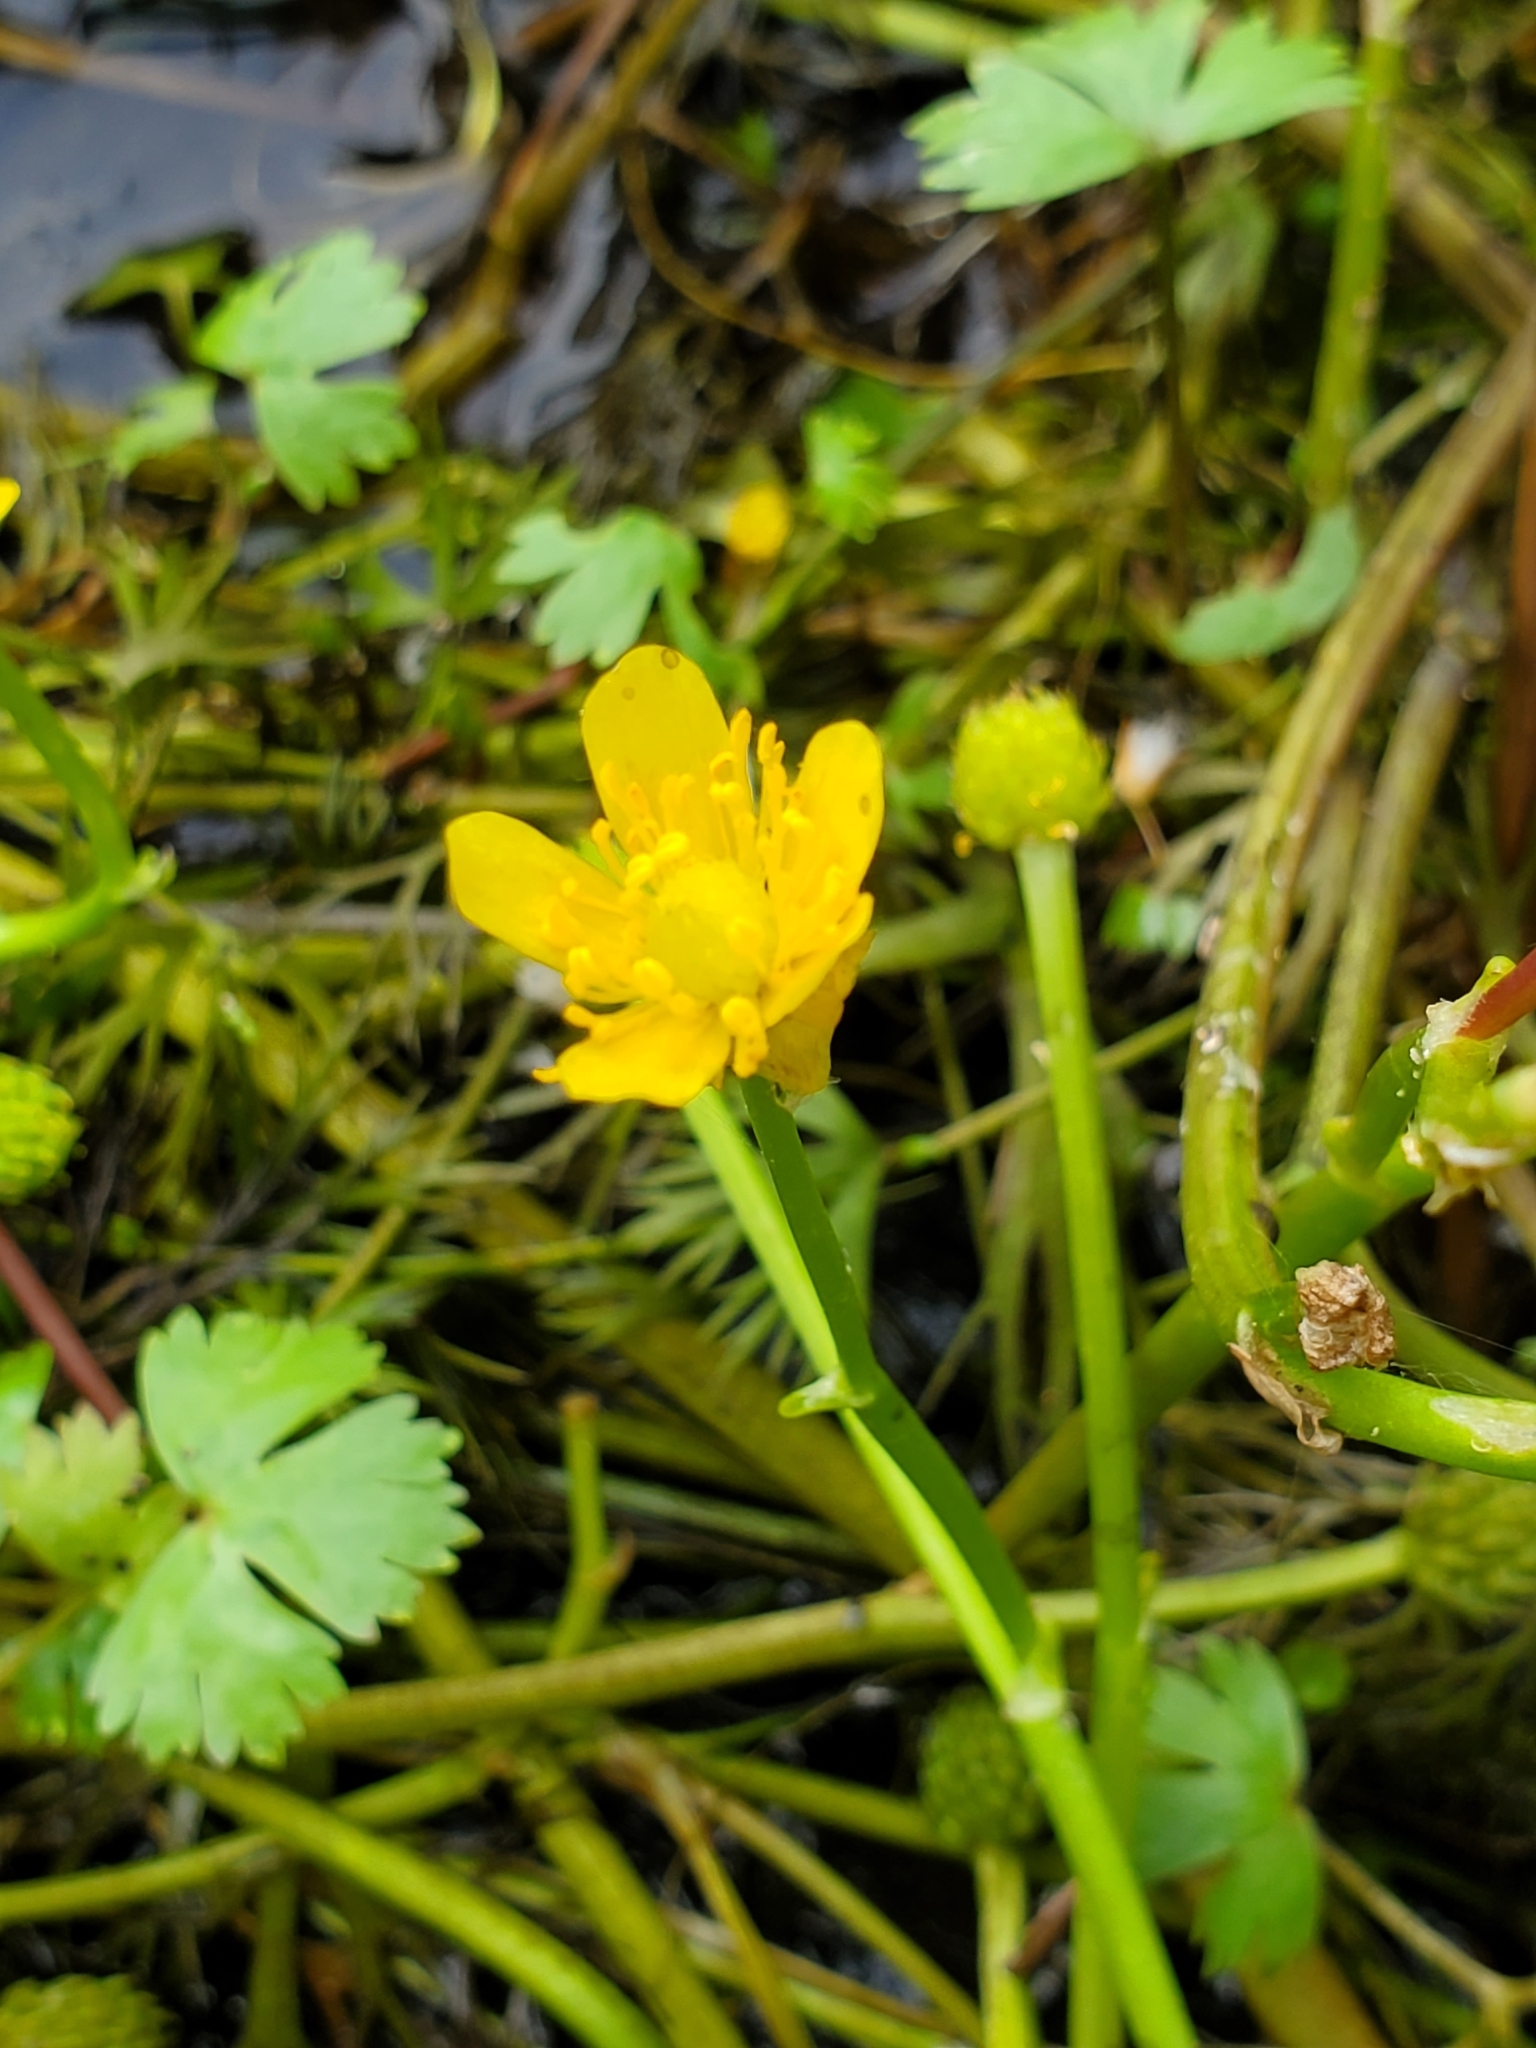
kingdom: Plantae
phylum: Tracheophyta
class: Magnoliopsida
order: Ranunculales
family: Ranunculaceae
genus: Ranunculus
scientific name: Ranunculus flabellaris
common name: Yellow water-crowfoot
